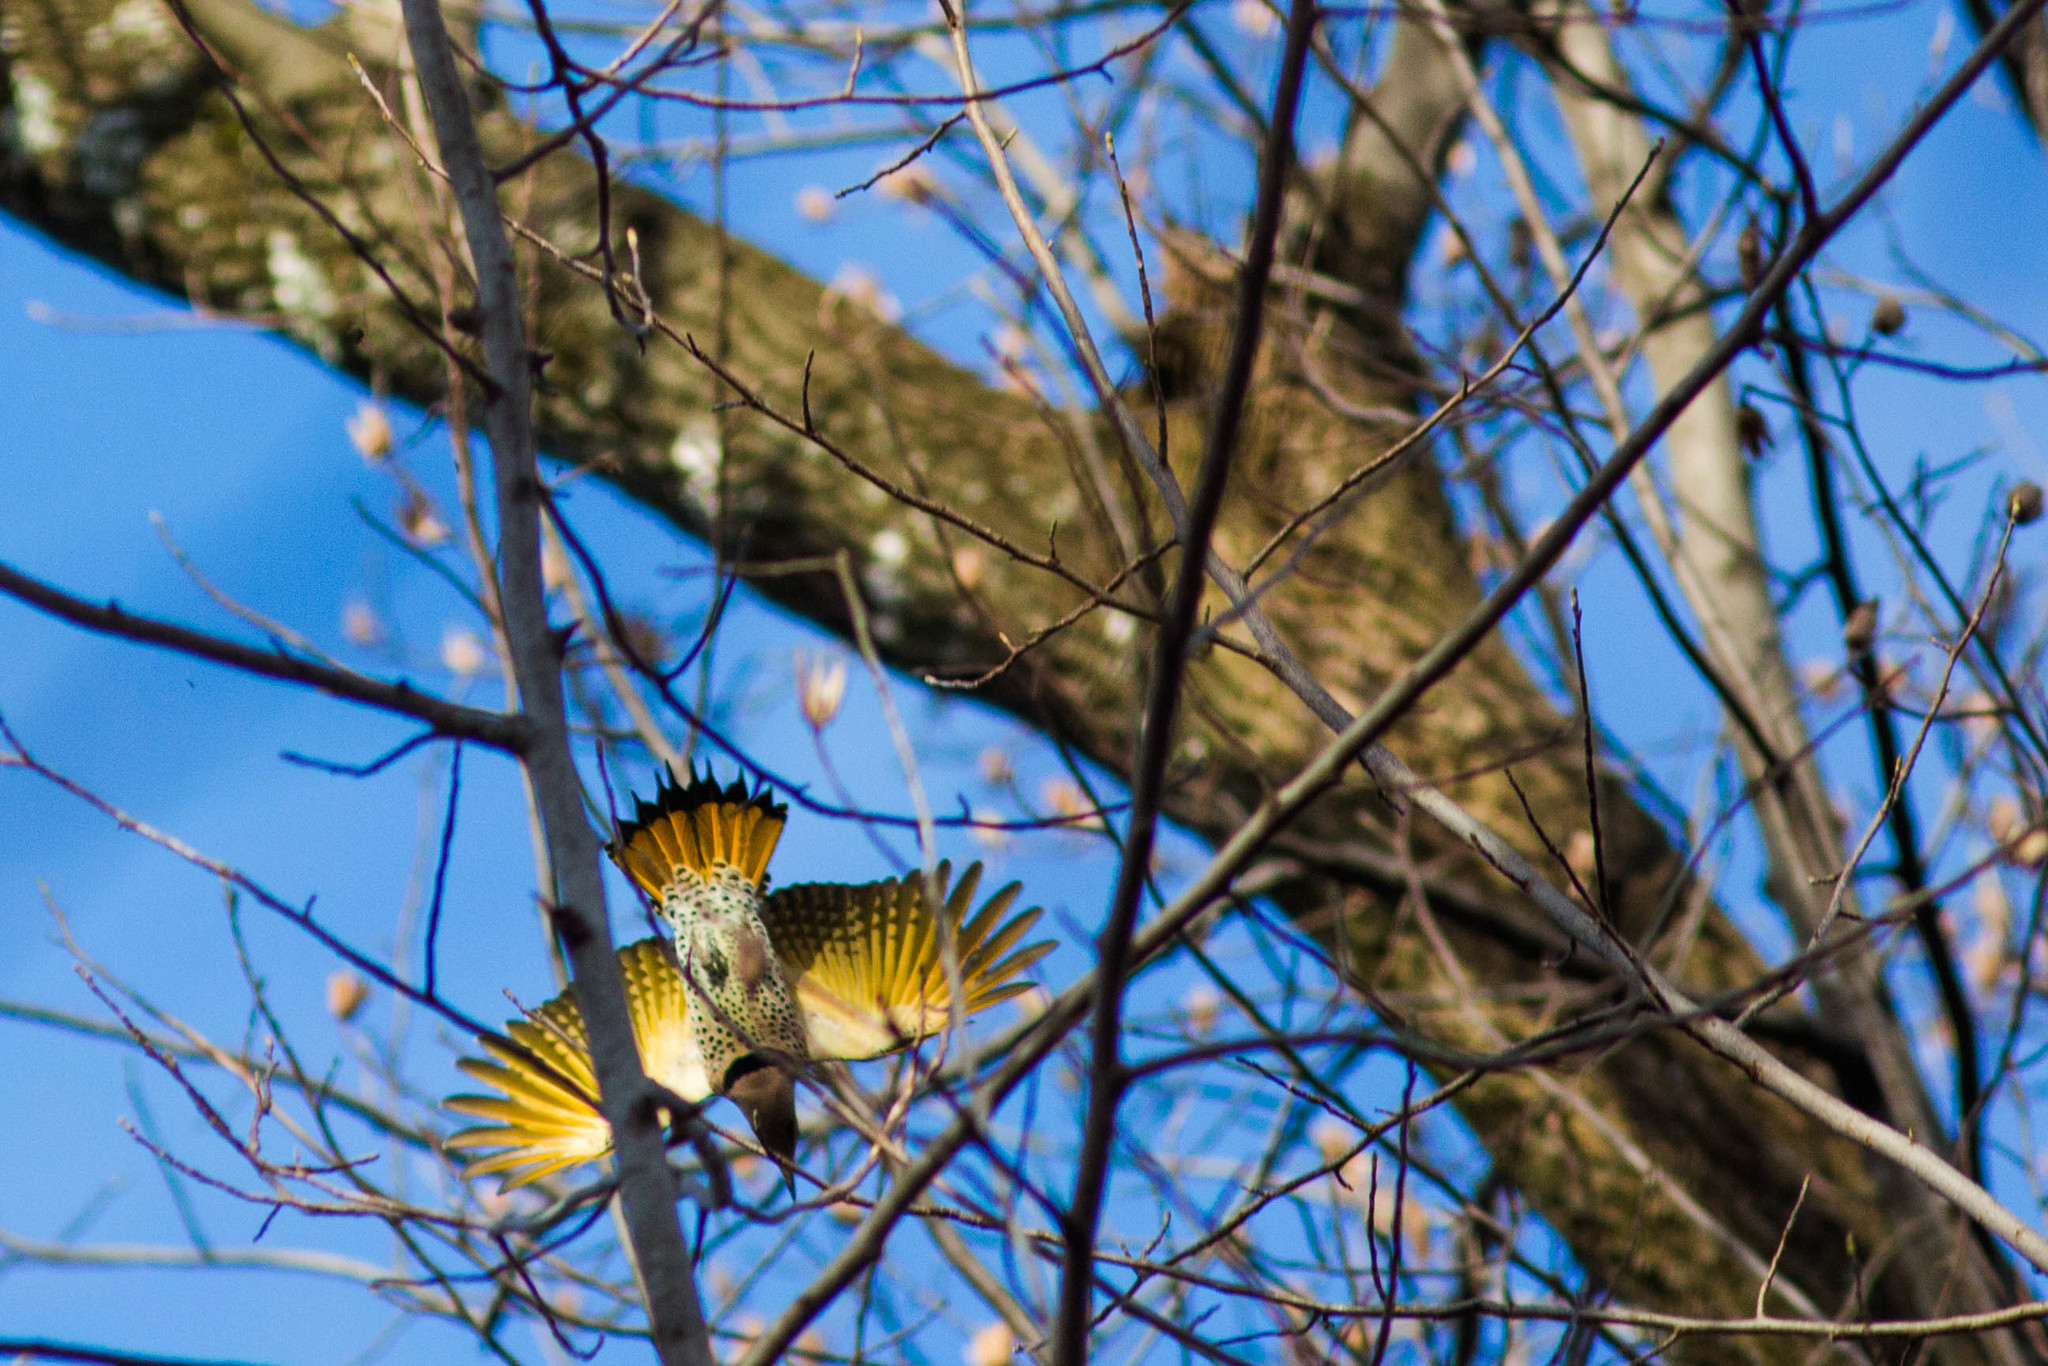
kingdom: Animalia
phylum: Chordata
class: Aves
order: Piciformes
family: Picidae
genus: Colaptes
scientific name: Colaptes auratus
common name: Northern flicker
